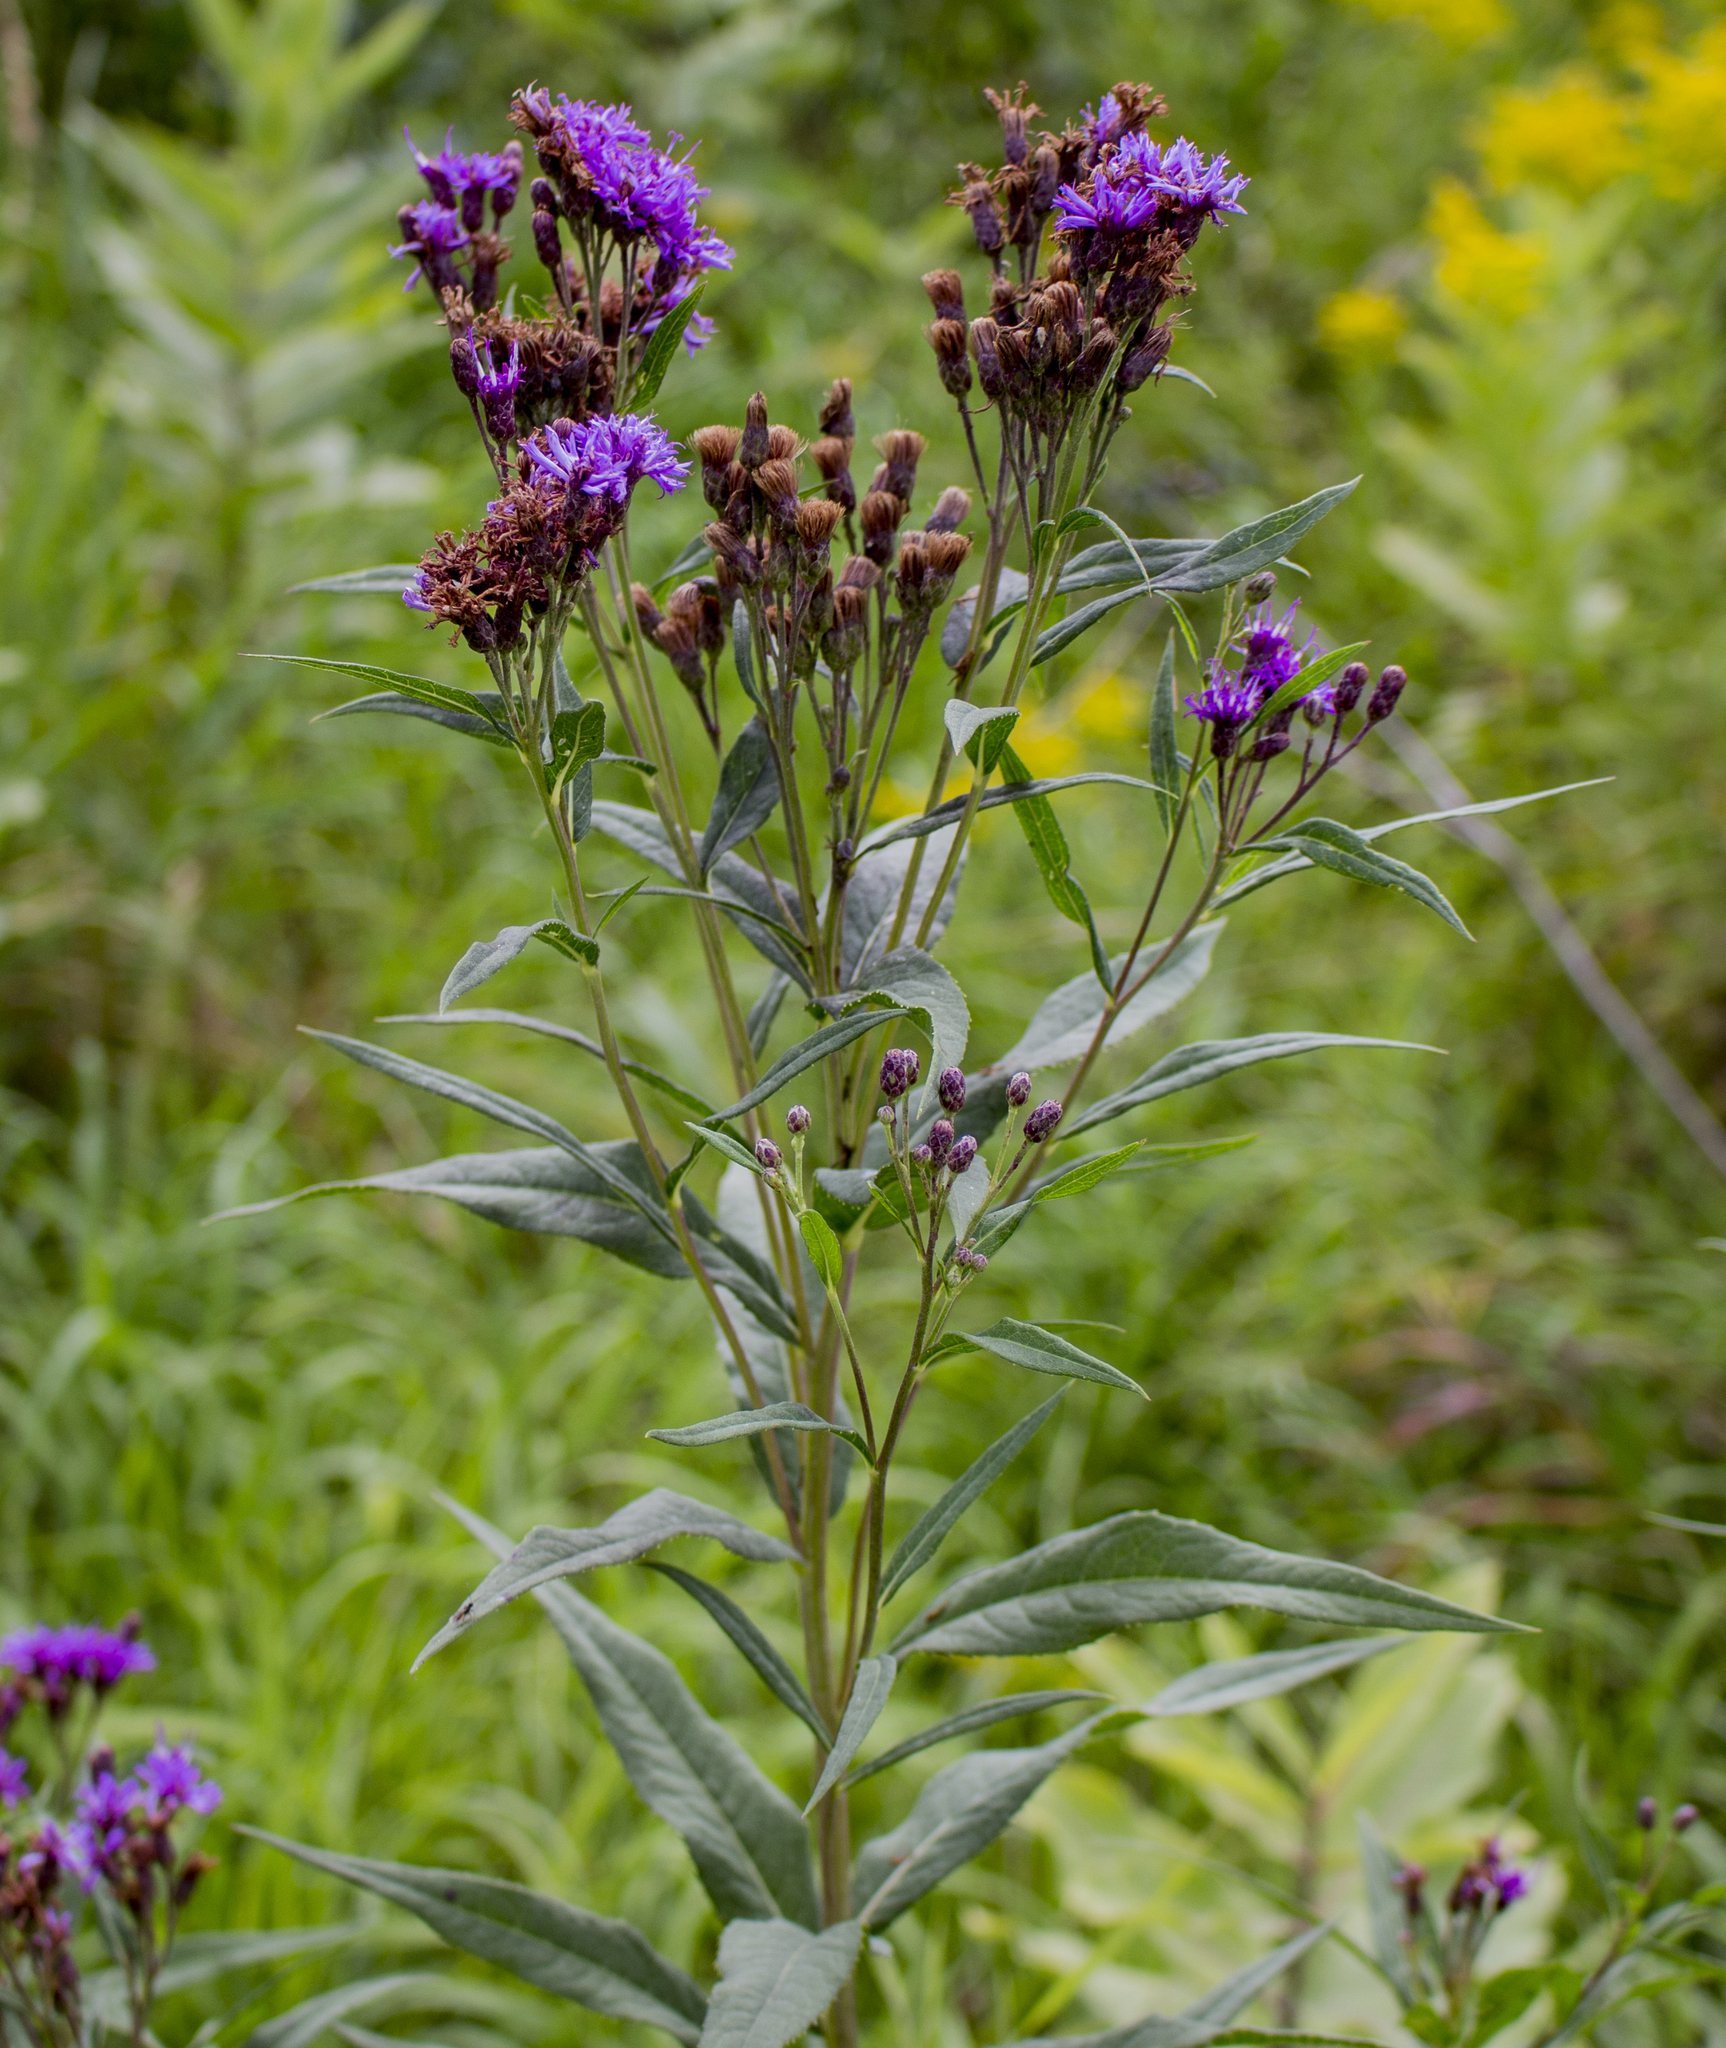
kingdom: Plantae
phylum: Tracheophyta
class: Magnoliopsida
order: Asterales
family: Asteraceae
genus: Vernonia
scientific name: Vernonia fasciculata
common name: Fascicled ironweed
